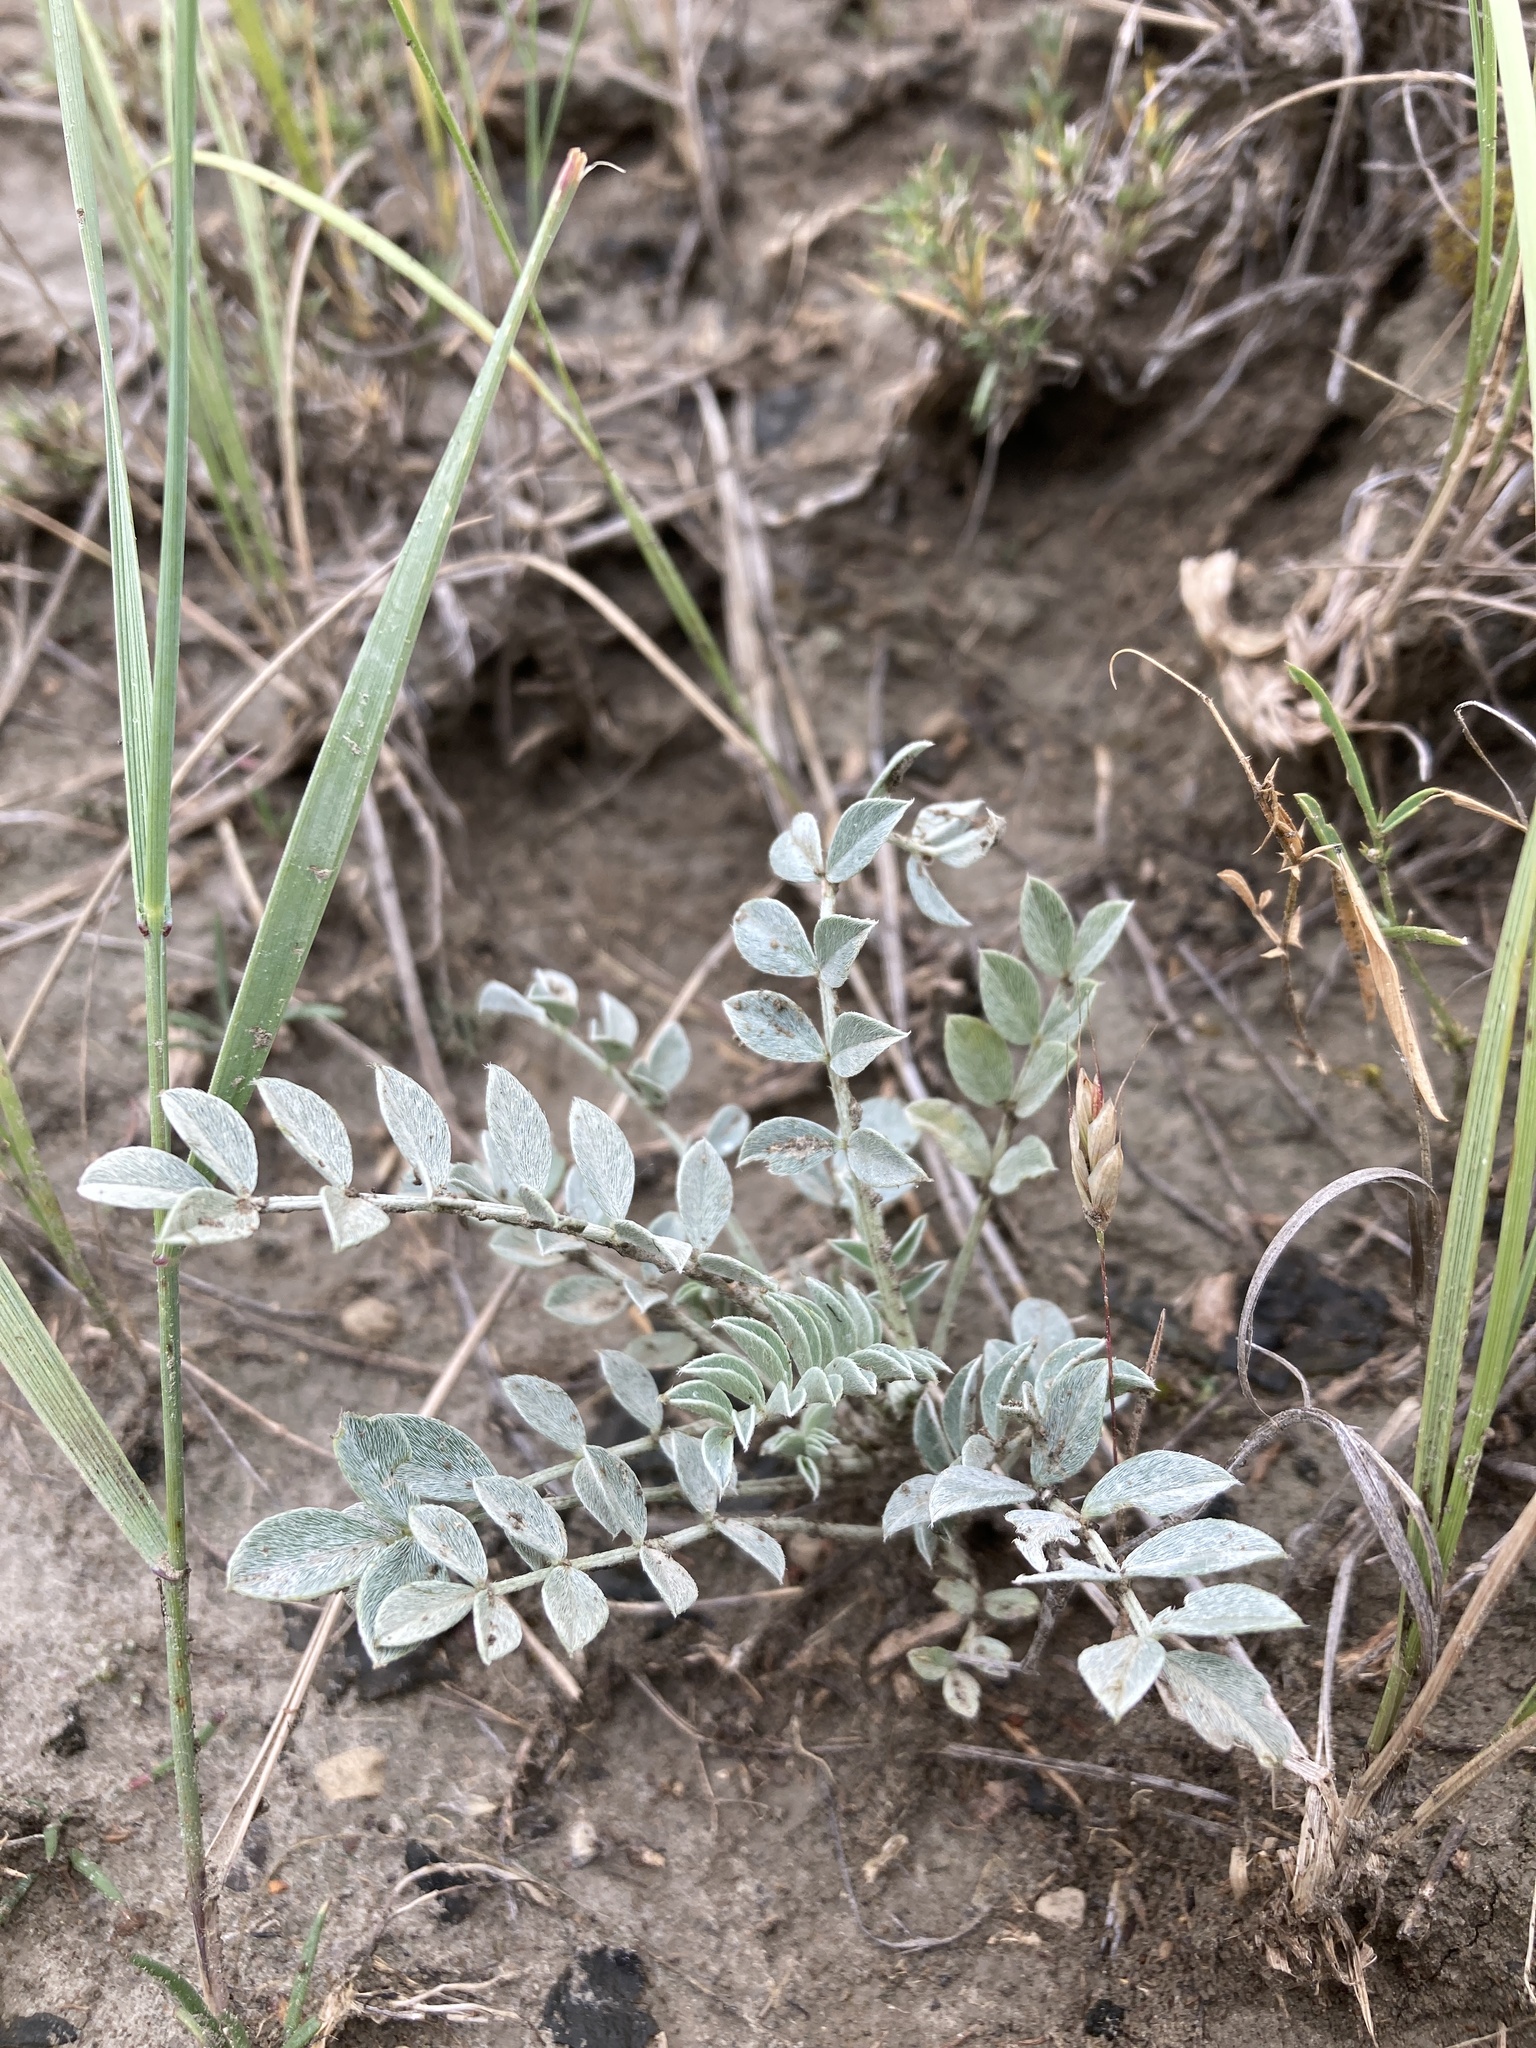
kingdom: Plantae
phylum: Tracheophyta
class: Magnoliopsida
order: Fabales
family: Fabaceae
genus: Astragalus
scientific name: Astragalus missouriensis
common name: Missouri milk-vetch
